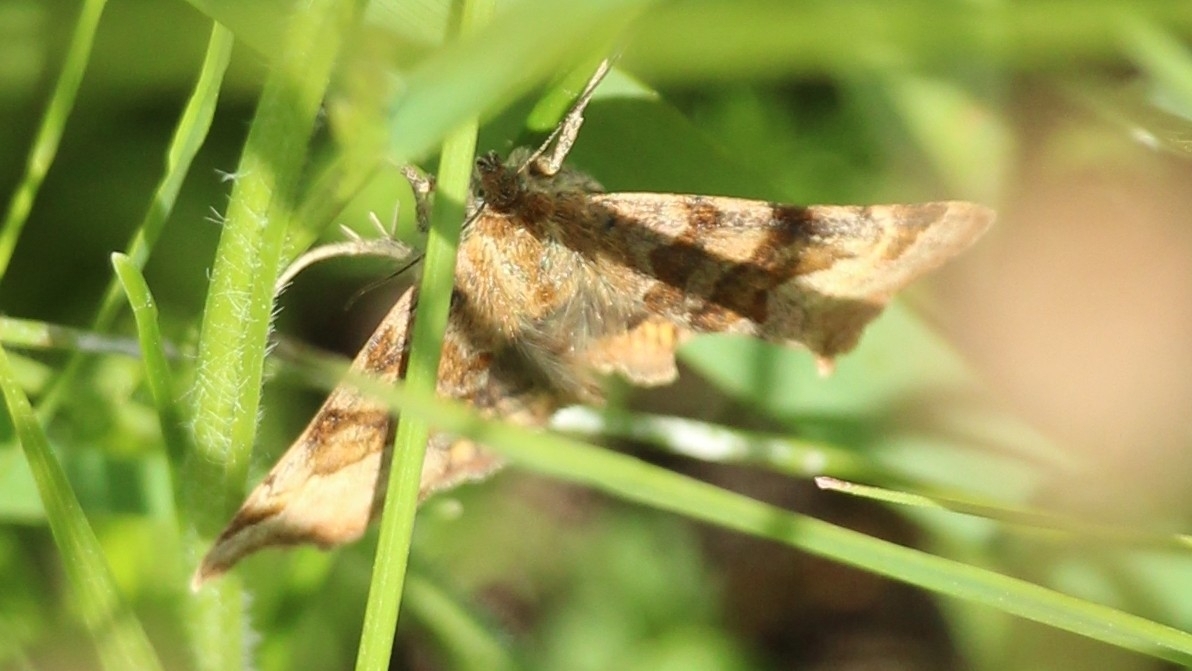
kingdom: Animalia
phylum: Arthropoda
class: Insecta
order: Lepidoptera
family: Erebidae
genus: Euclidia
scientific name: Euclidia glyphica
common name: Burnet companion
